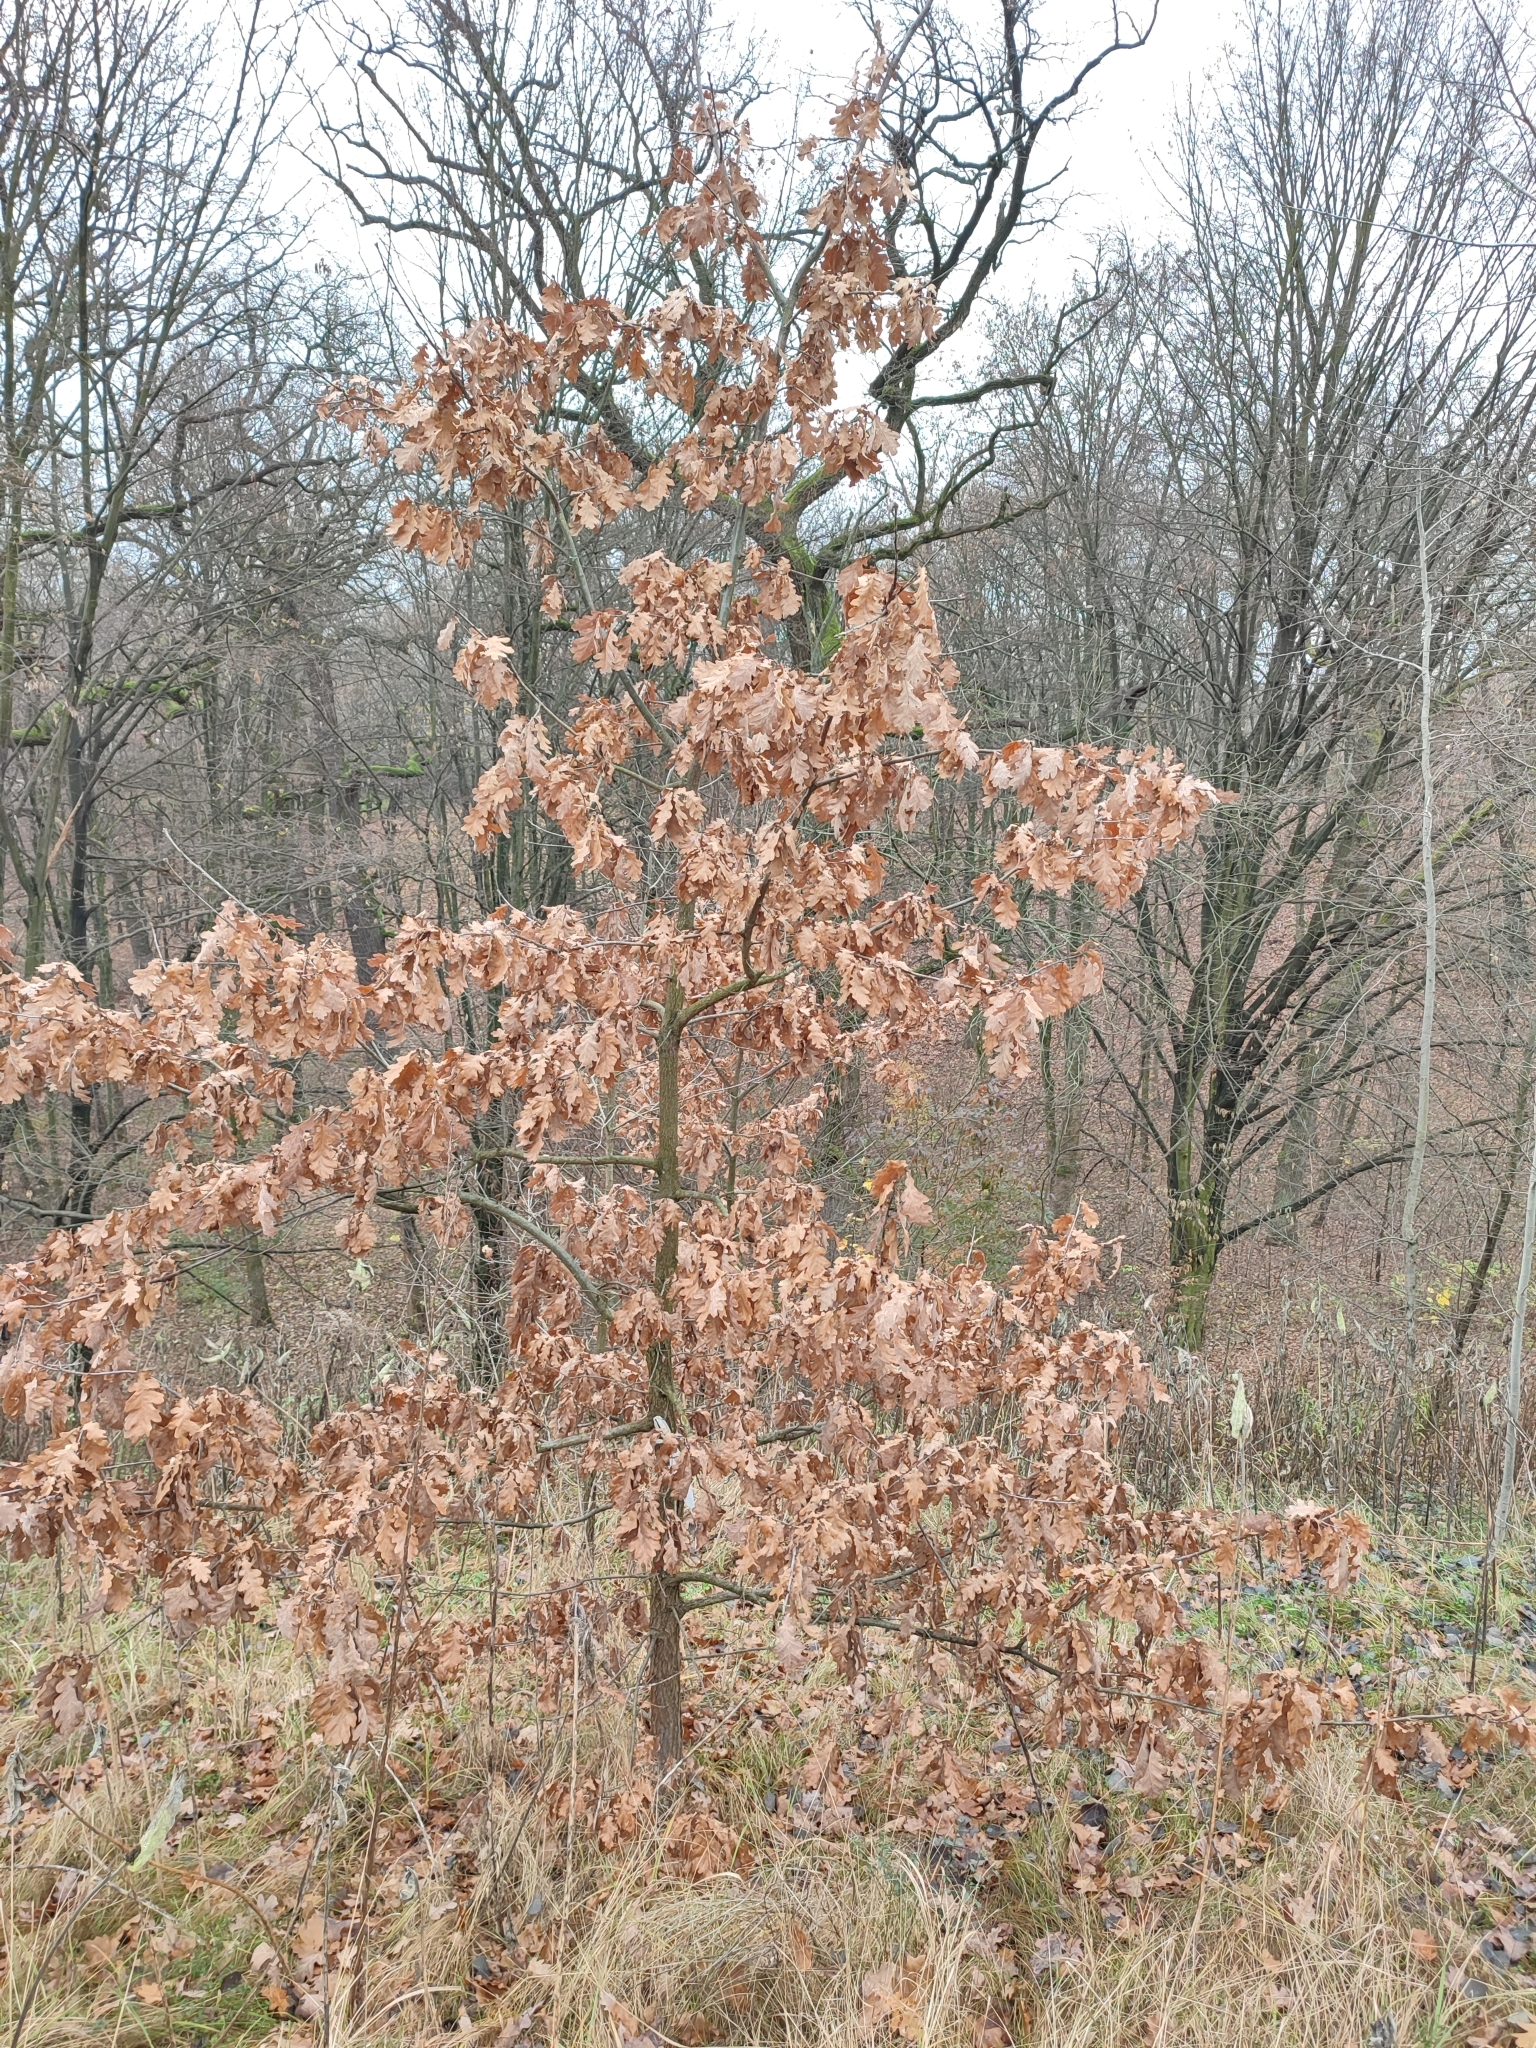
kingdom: Plantae
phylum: Tracheophyta
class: Magnoliopsida
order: Fagales
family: Fagaceae
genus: Quercus
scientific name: Quercus robur
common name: Pedunculate oak
